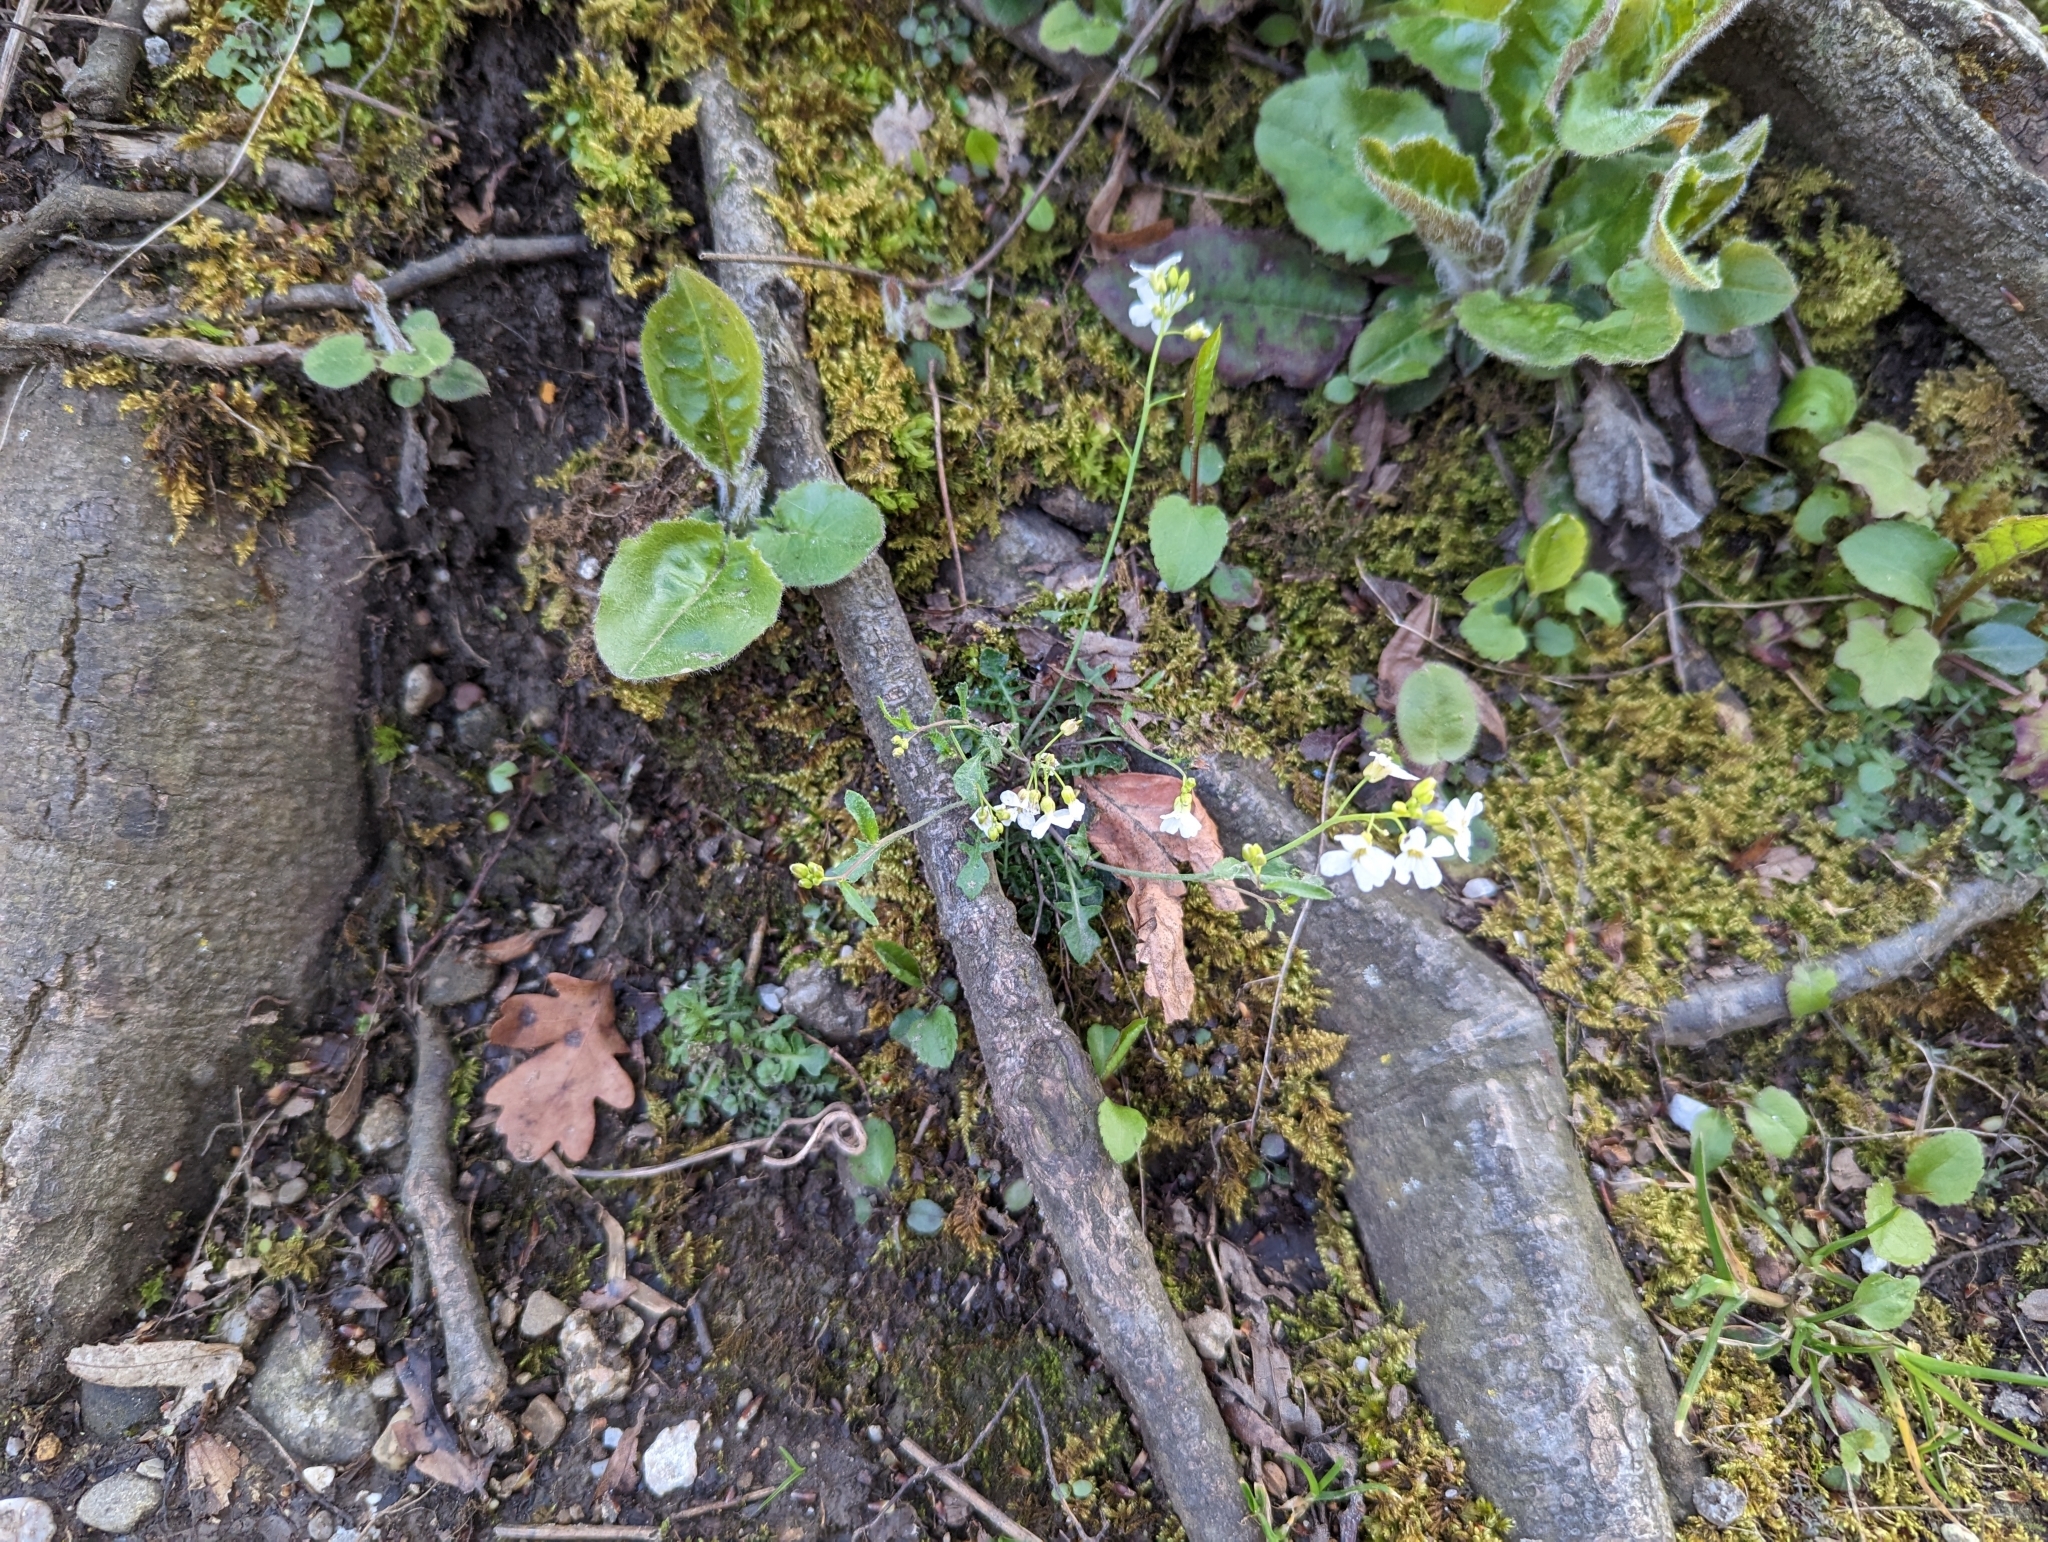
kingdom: Plantae
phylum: Tracheophyta
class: Magnoliopsida
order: Brassicales
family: Brassicaceae
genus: Arabidopsis
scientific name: Arabidopsis arenosa
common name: Sand rock-cress
